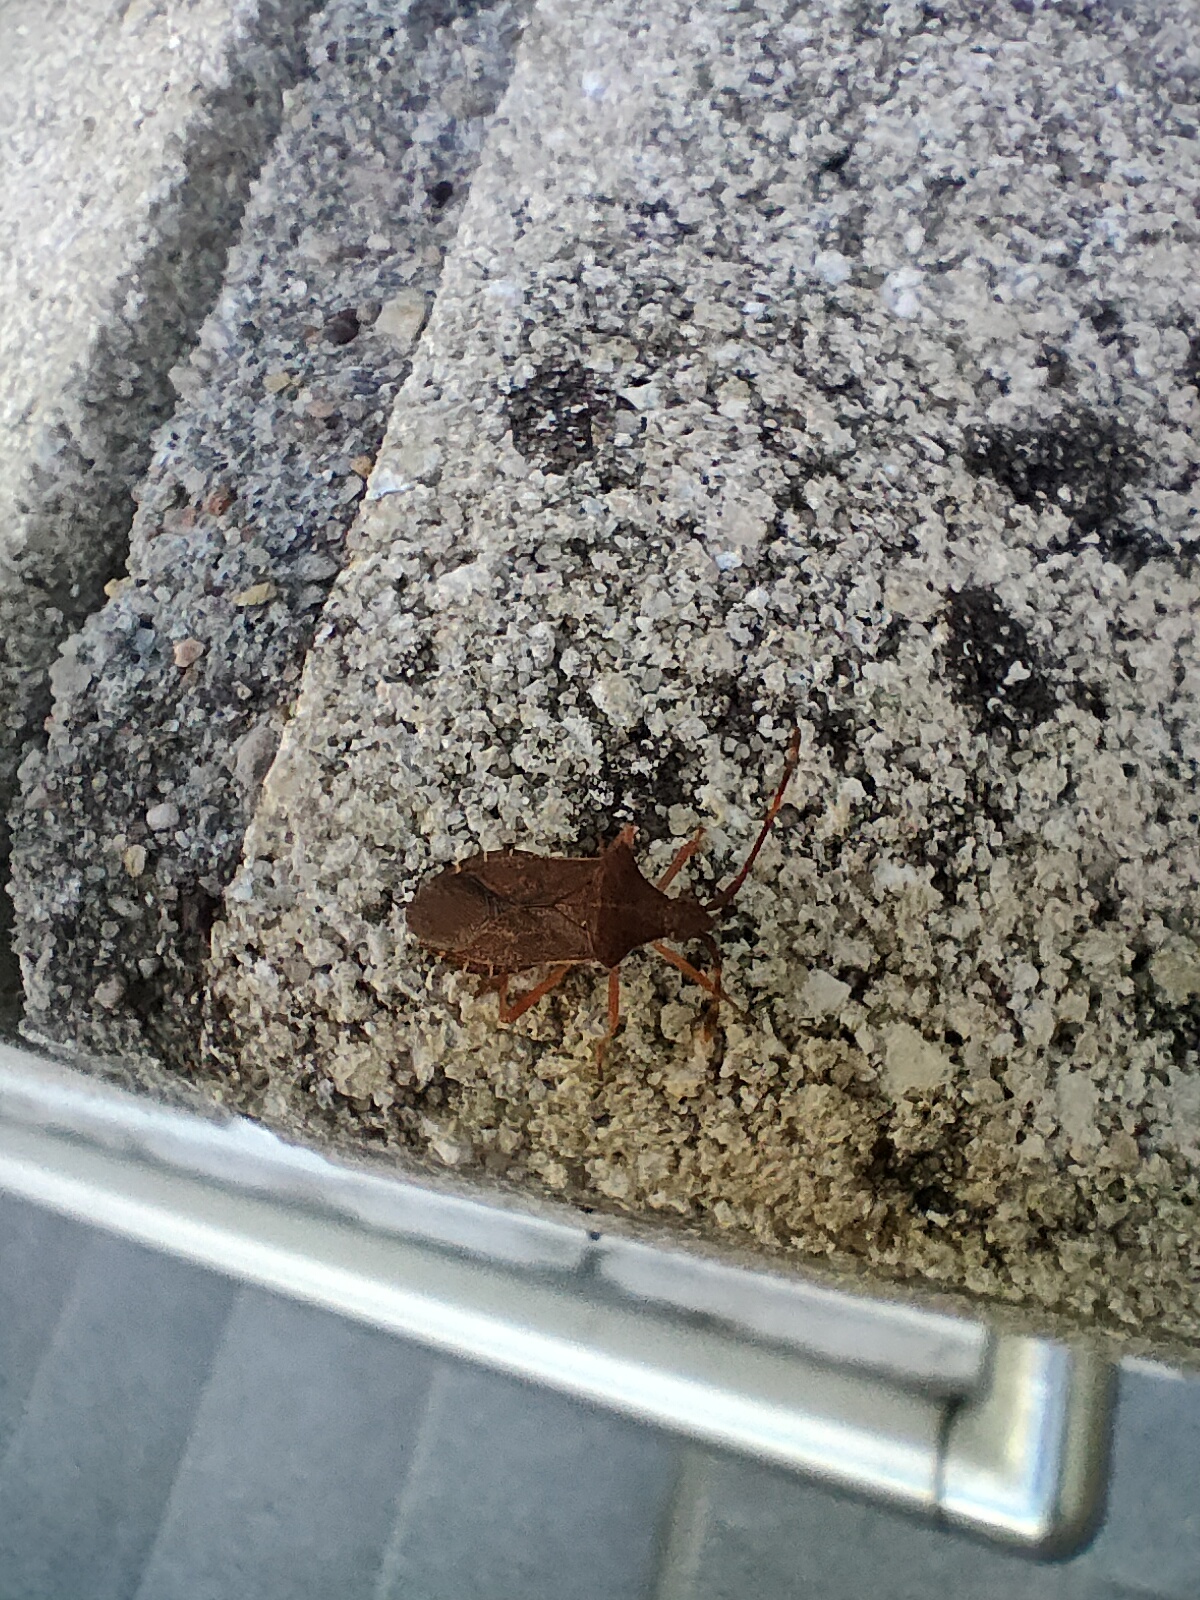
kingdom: Animalia
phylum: Arthropoda
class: Insecta
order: Hemiptera
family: Coreidae
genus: Gonocerus
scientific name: Gonocerus acuteangulatus
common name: Box bug
